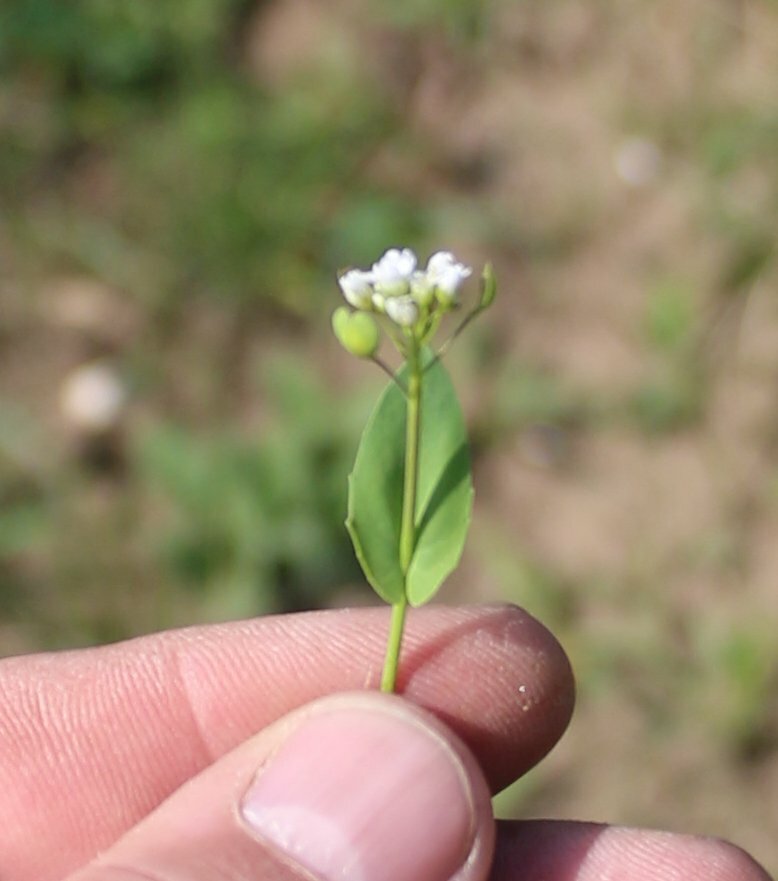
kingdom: Plantae
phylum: Tracheophyta
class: Magnoliopsida
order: Brassicales
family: Brassicaceae
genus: Noccaea
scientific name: Noccaea perfoliata
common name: Perfoliate pennycress
